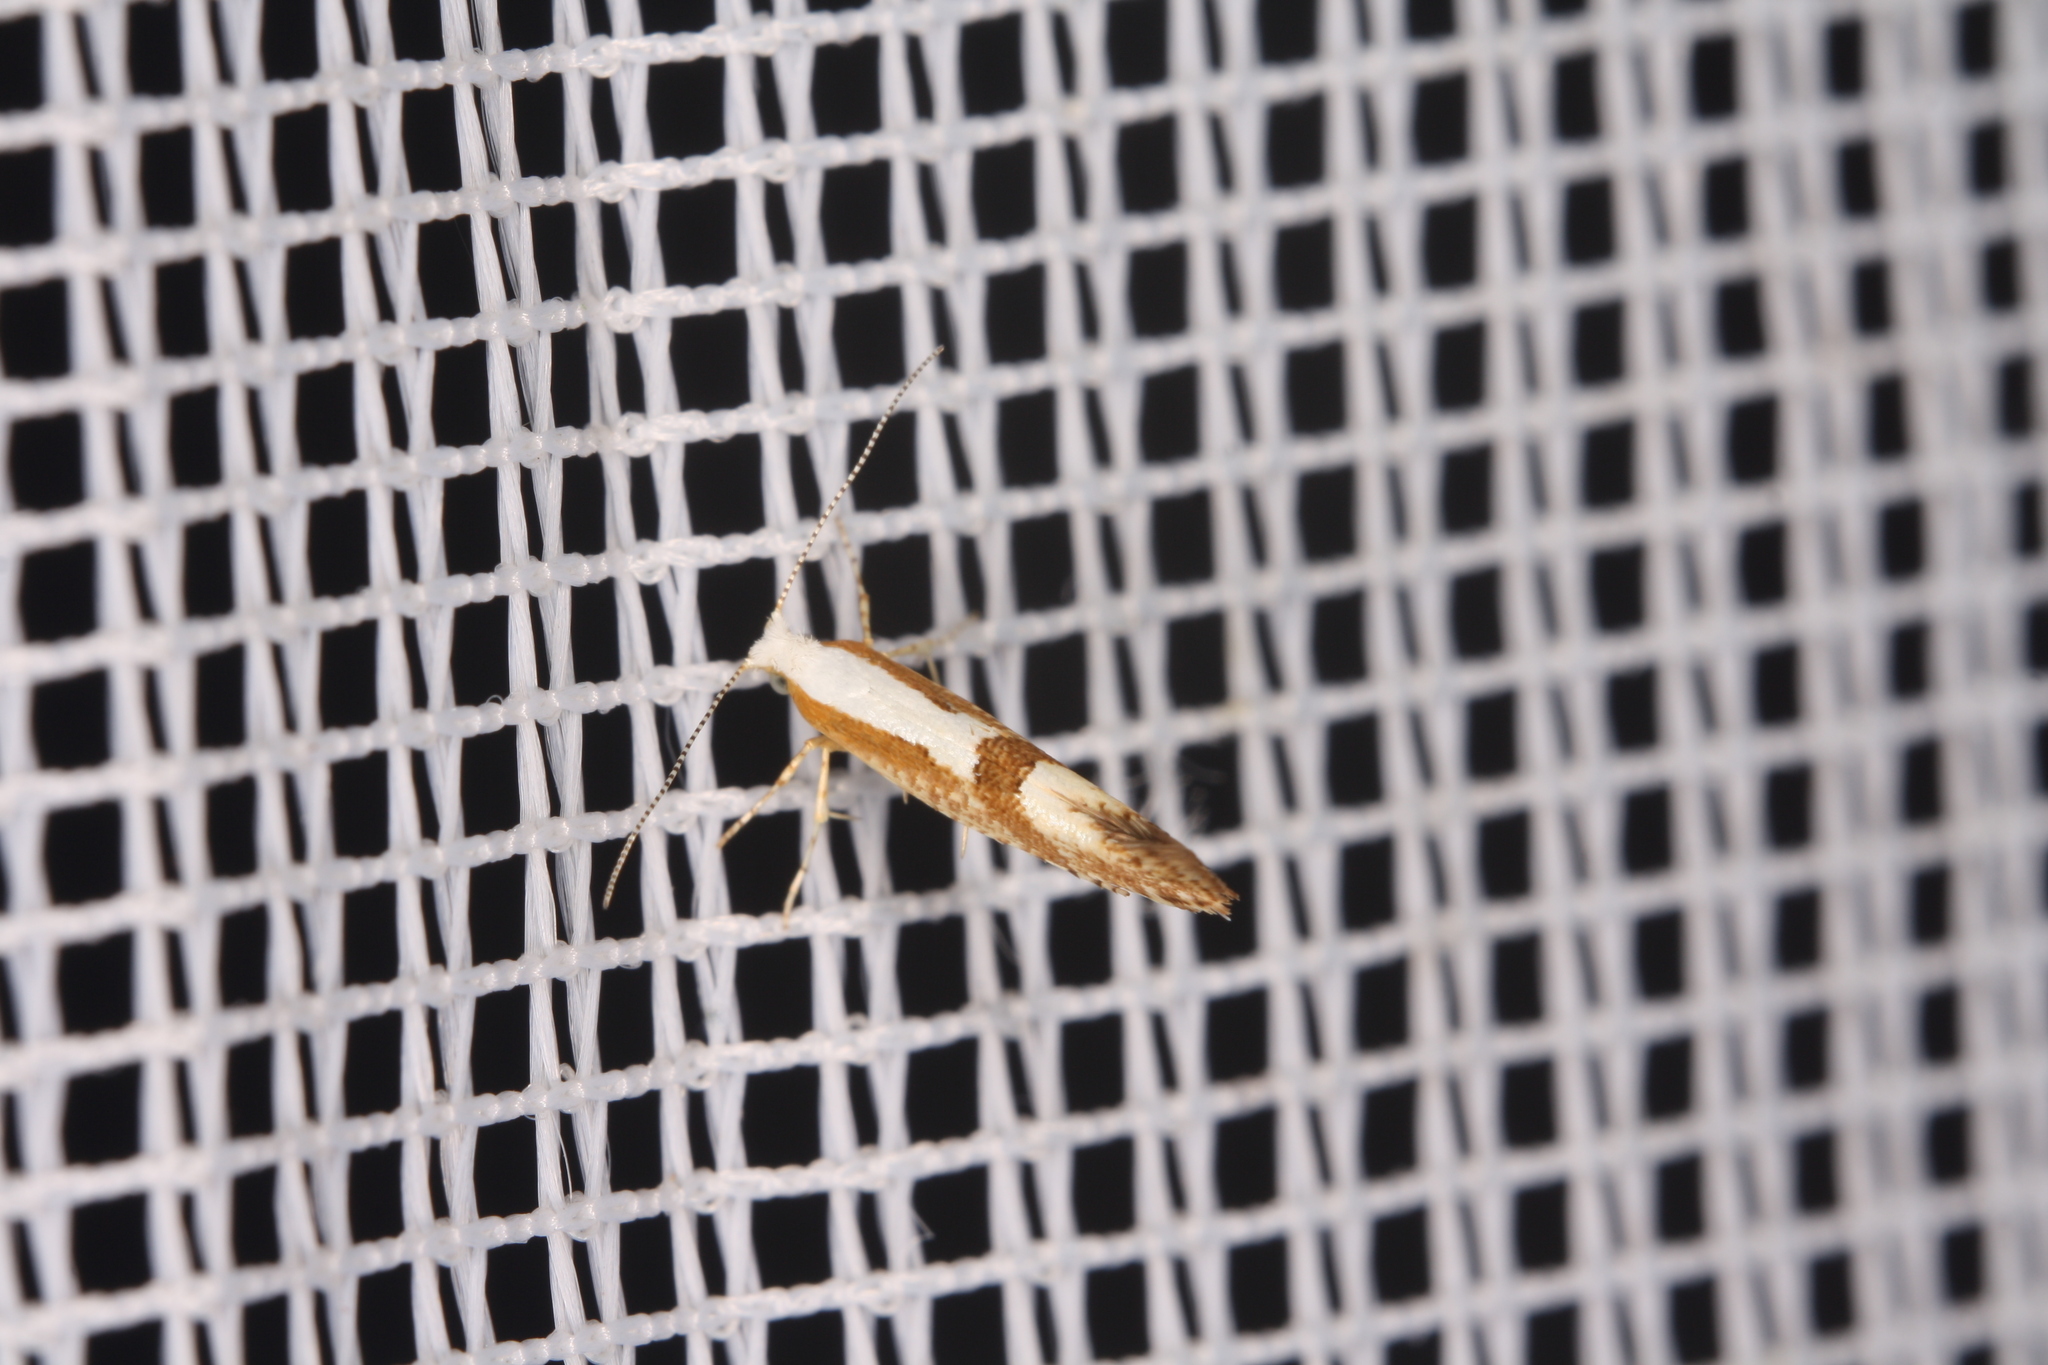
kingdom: Animalia
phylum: Arthropoda
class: Insecta
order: Lepidoptera
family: Argyresthiidae
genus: Argyresthia
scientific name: Argyresthia pruniella
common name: Cherry fruit moth
